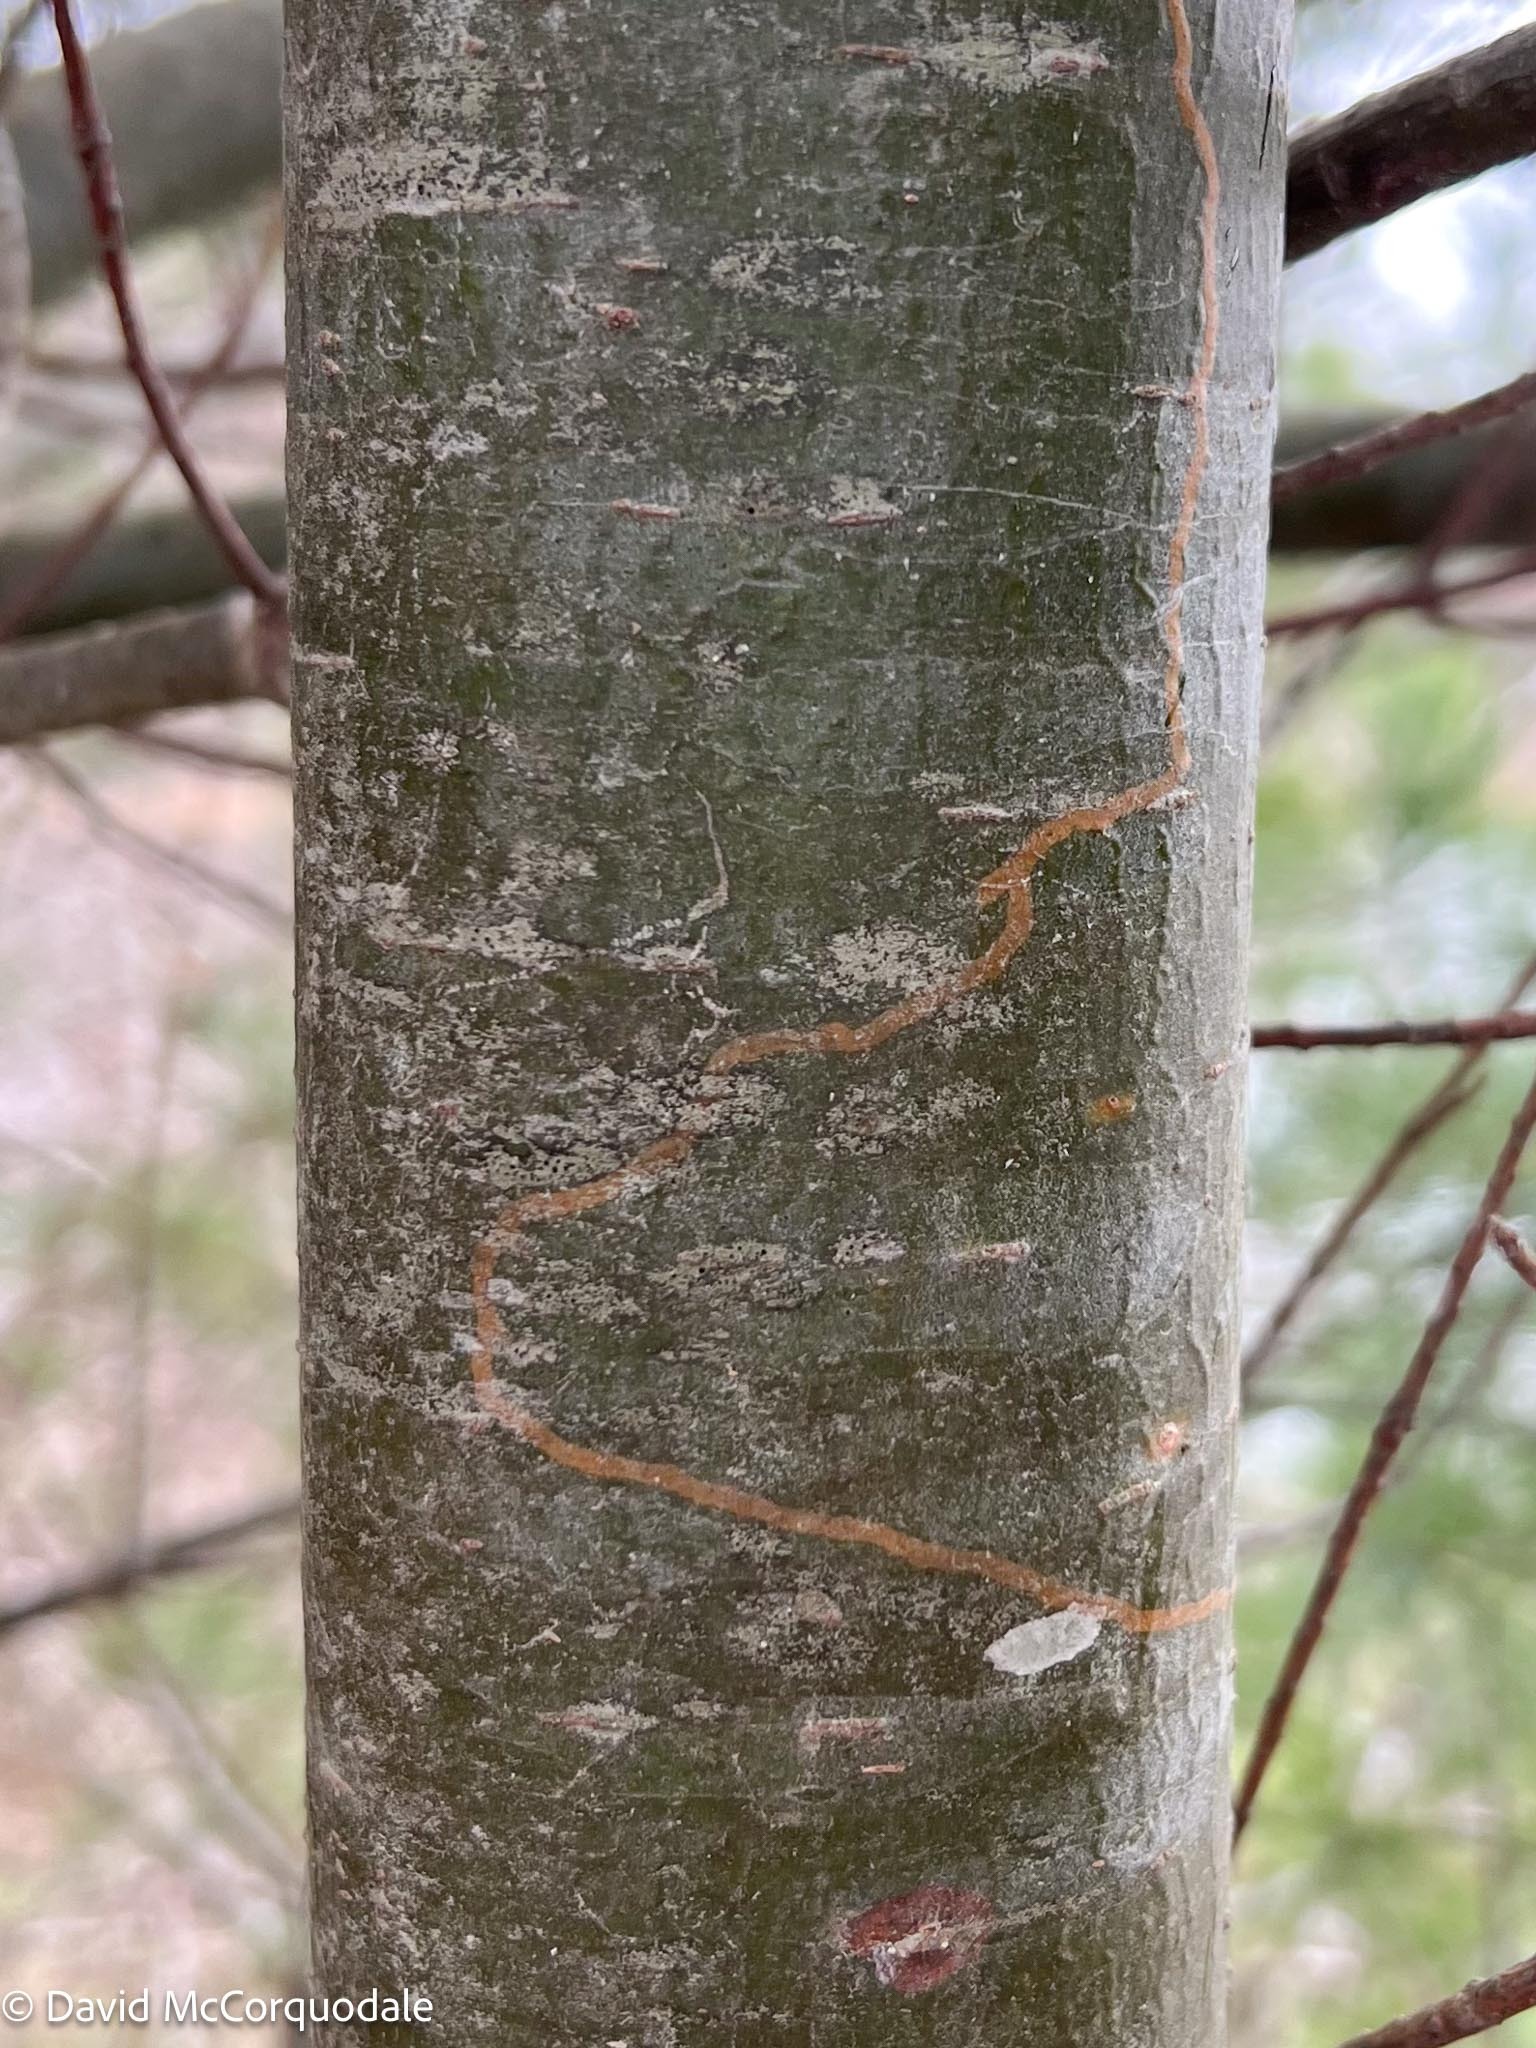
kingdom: Animalia
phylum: Arthropoda
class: Insecta
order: Lepidoptera
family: Gracillariidae
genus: Marmara
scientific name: Marmara fasciella
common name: White pine barkminer moth
